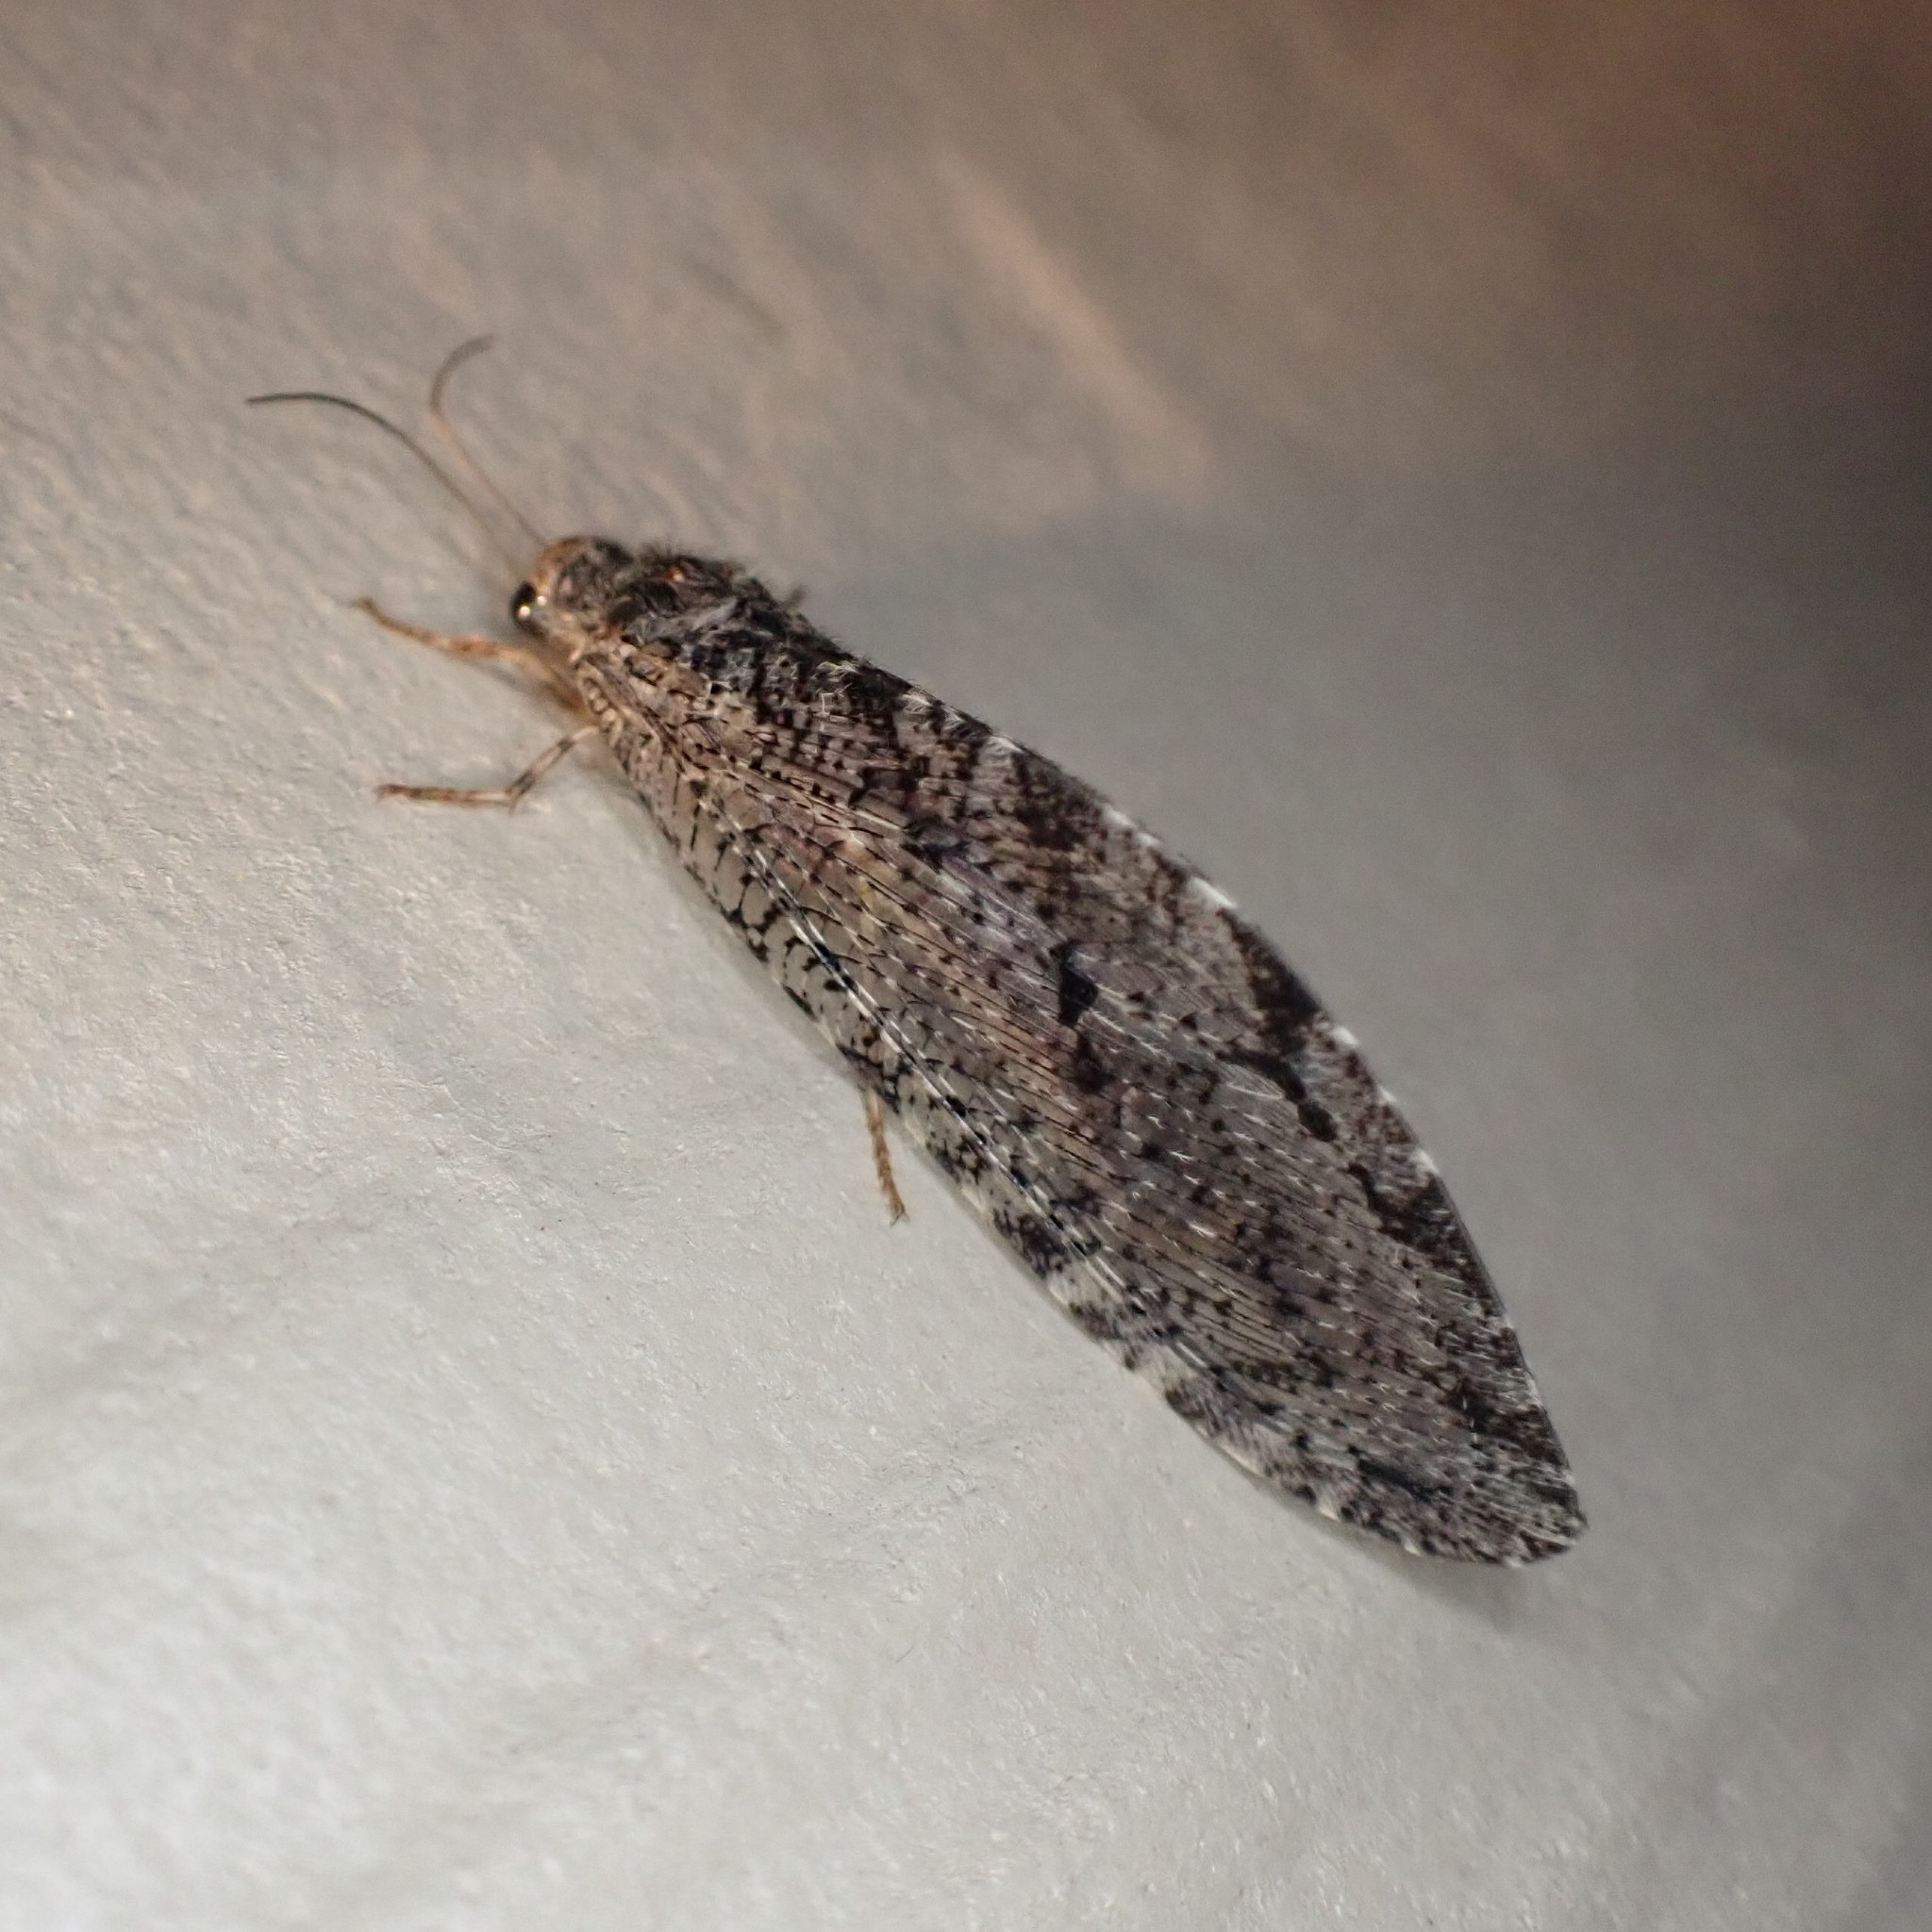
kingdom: Animalia
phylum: Arthropoda
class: Insecta
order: Neuroptera
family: Ithonidae
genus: Polystoechotes
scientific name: Polystoechotes punctata
